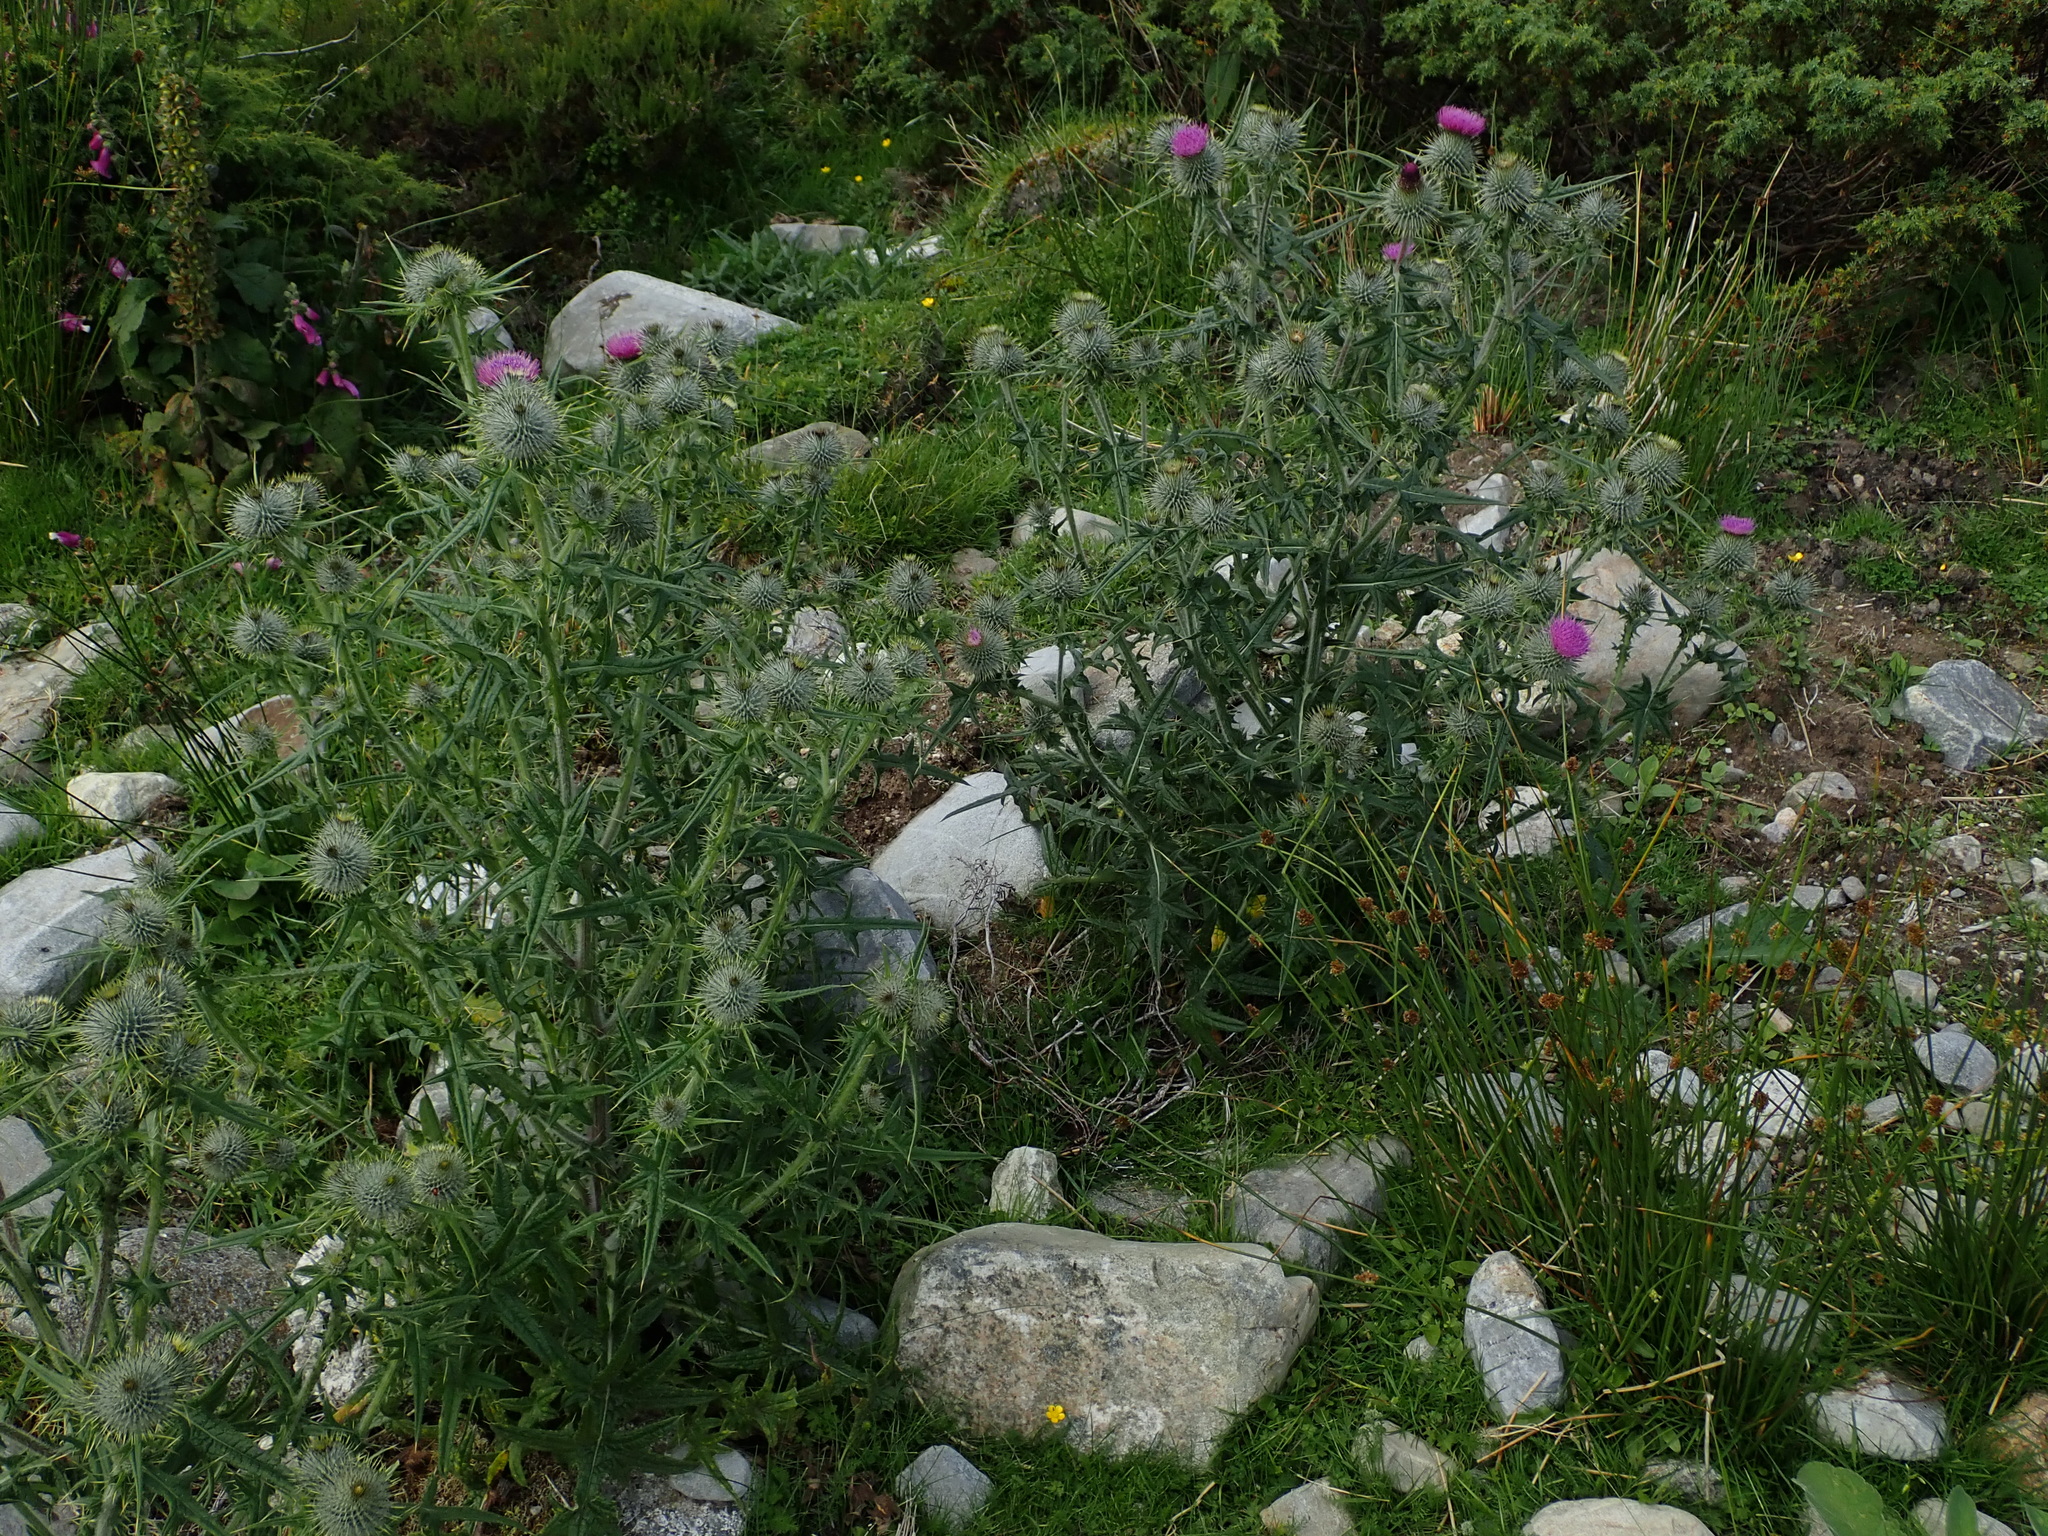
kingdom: Plantae
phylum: Tracheophyta
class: Magnoliopsida
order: Asterales
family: Asteraceae
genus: Cirsium
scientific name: Cirsium vulgare
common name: Bull thistle
